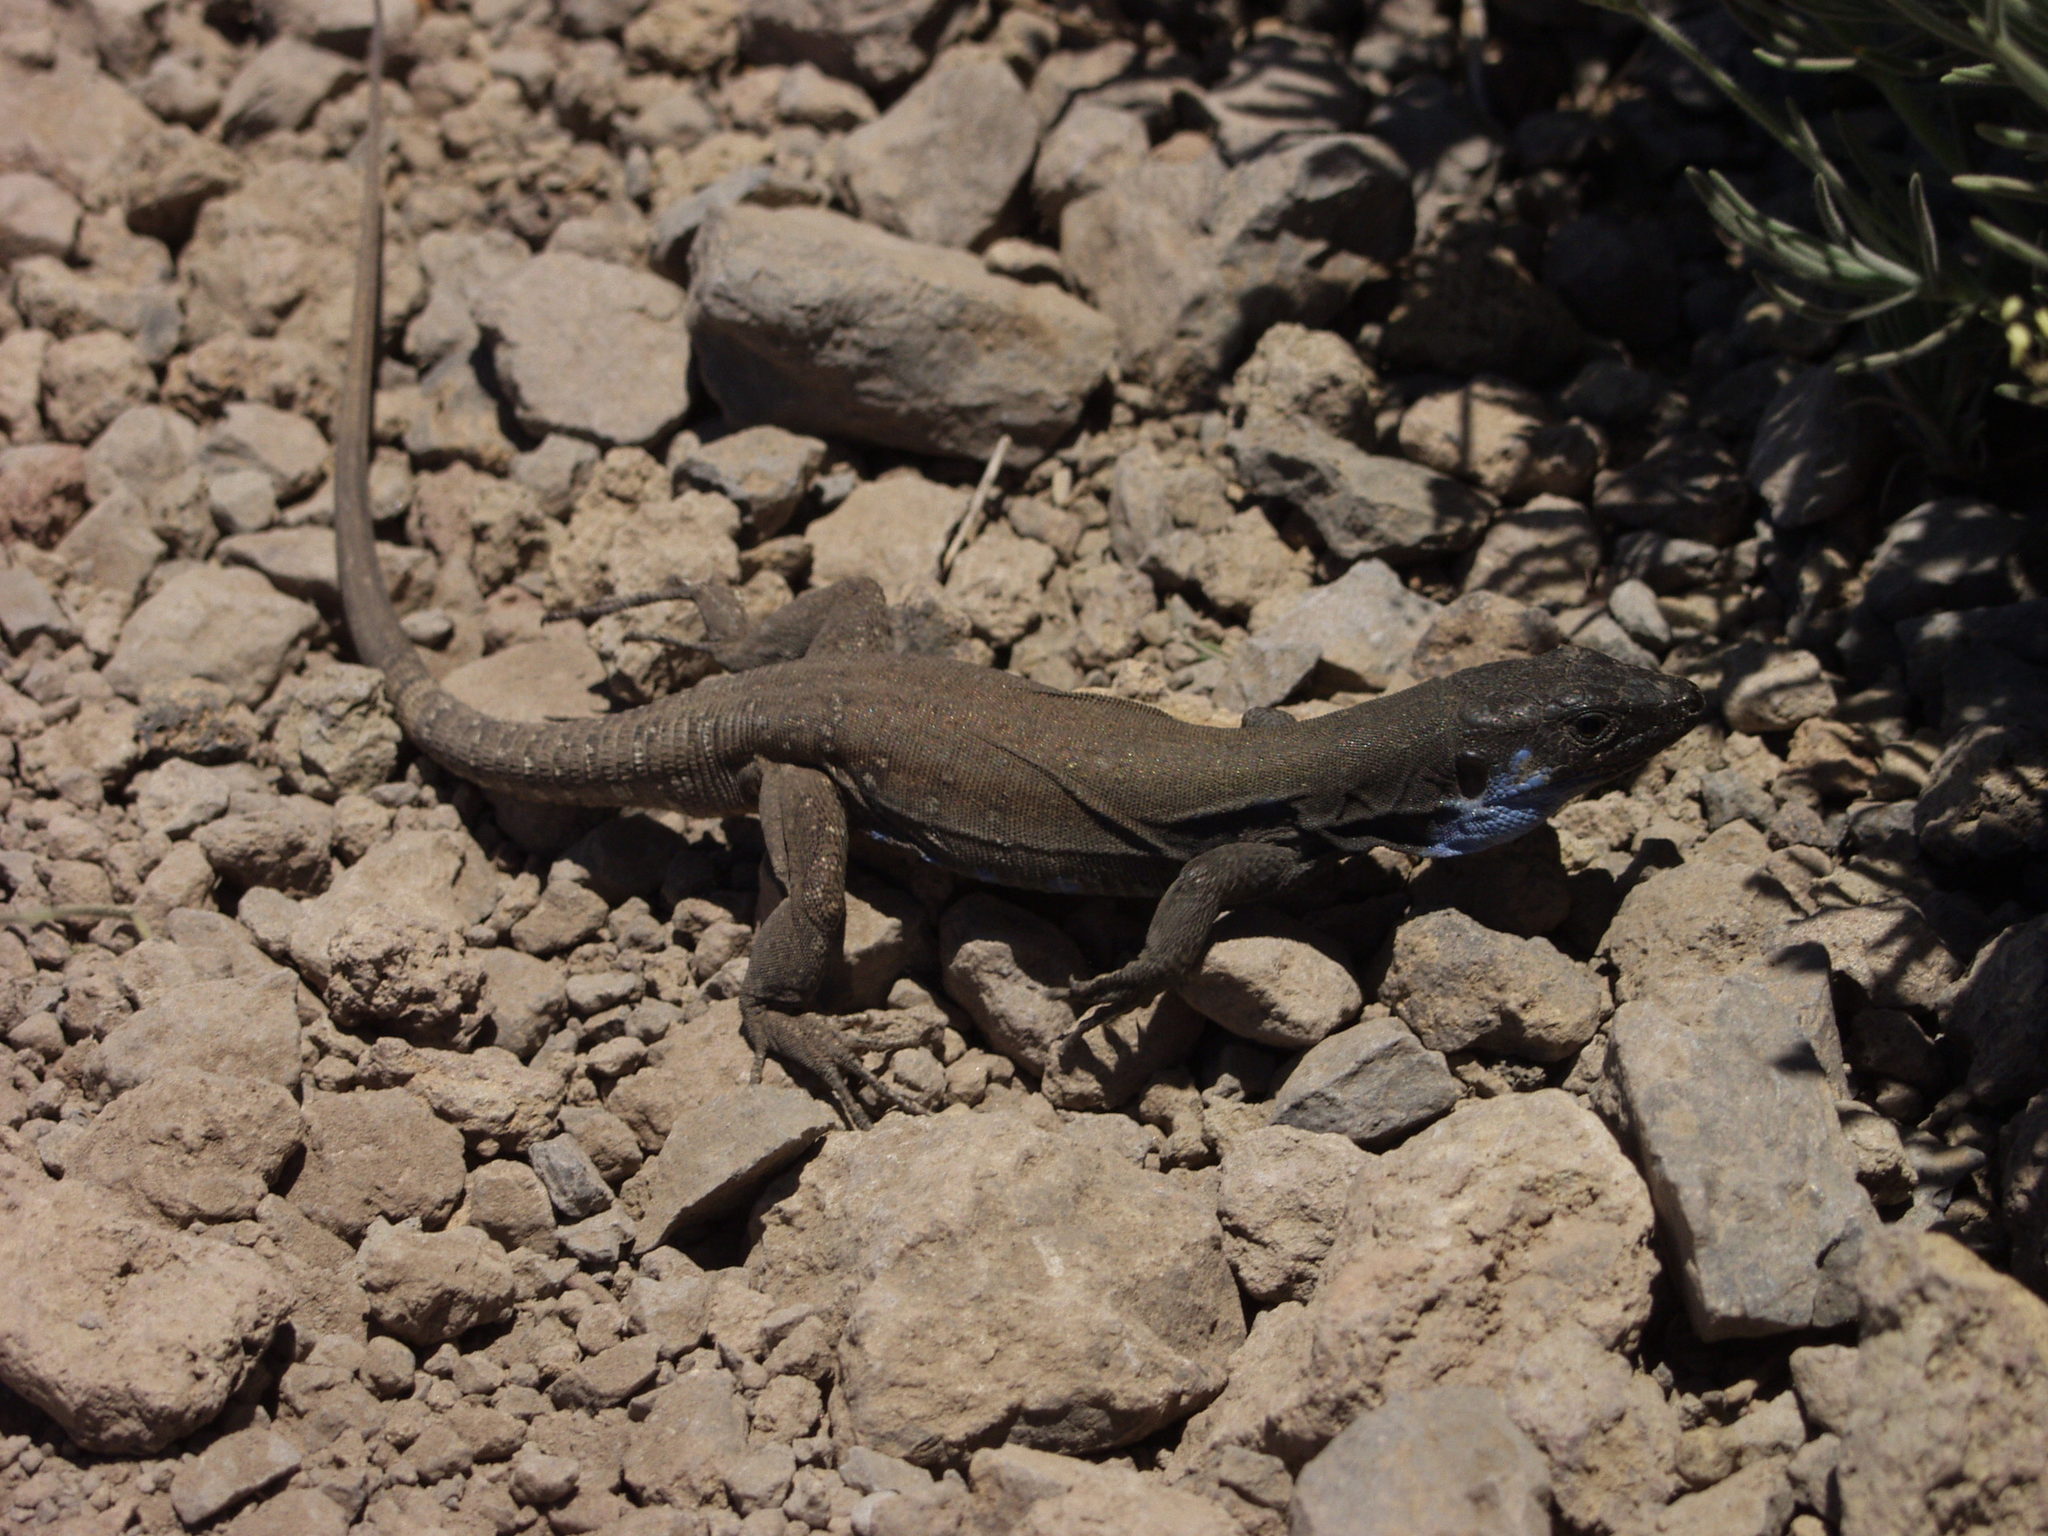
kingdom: Animalia
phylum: Chordata
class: Squamata
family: Lacertidae
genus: Gallotia
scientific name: Gallotia galloti
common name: Gallot's lizard
